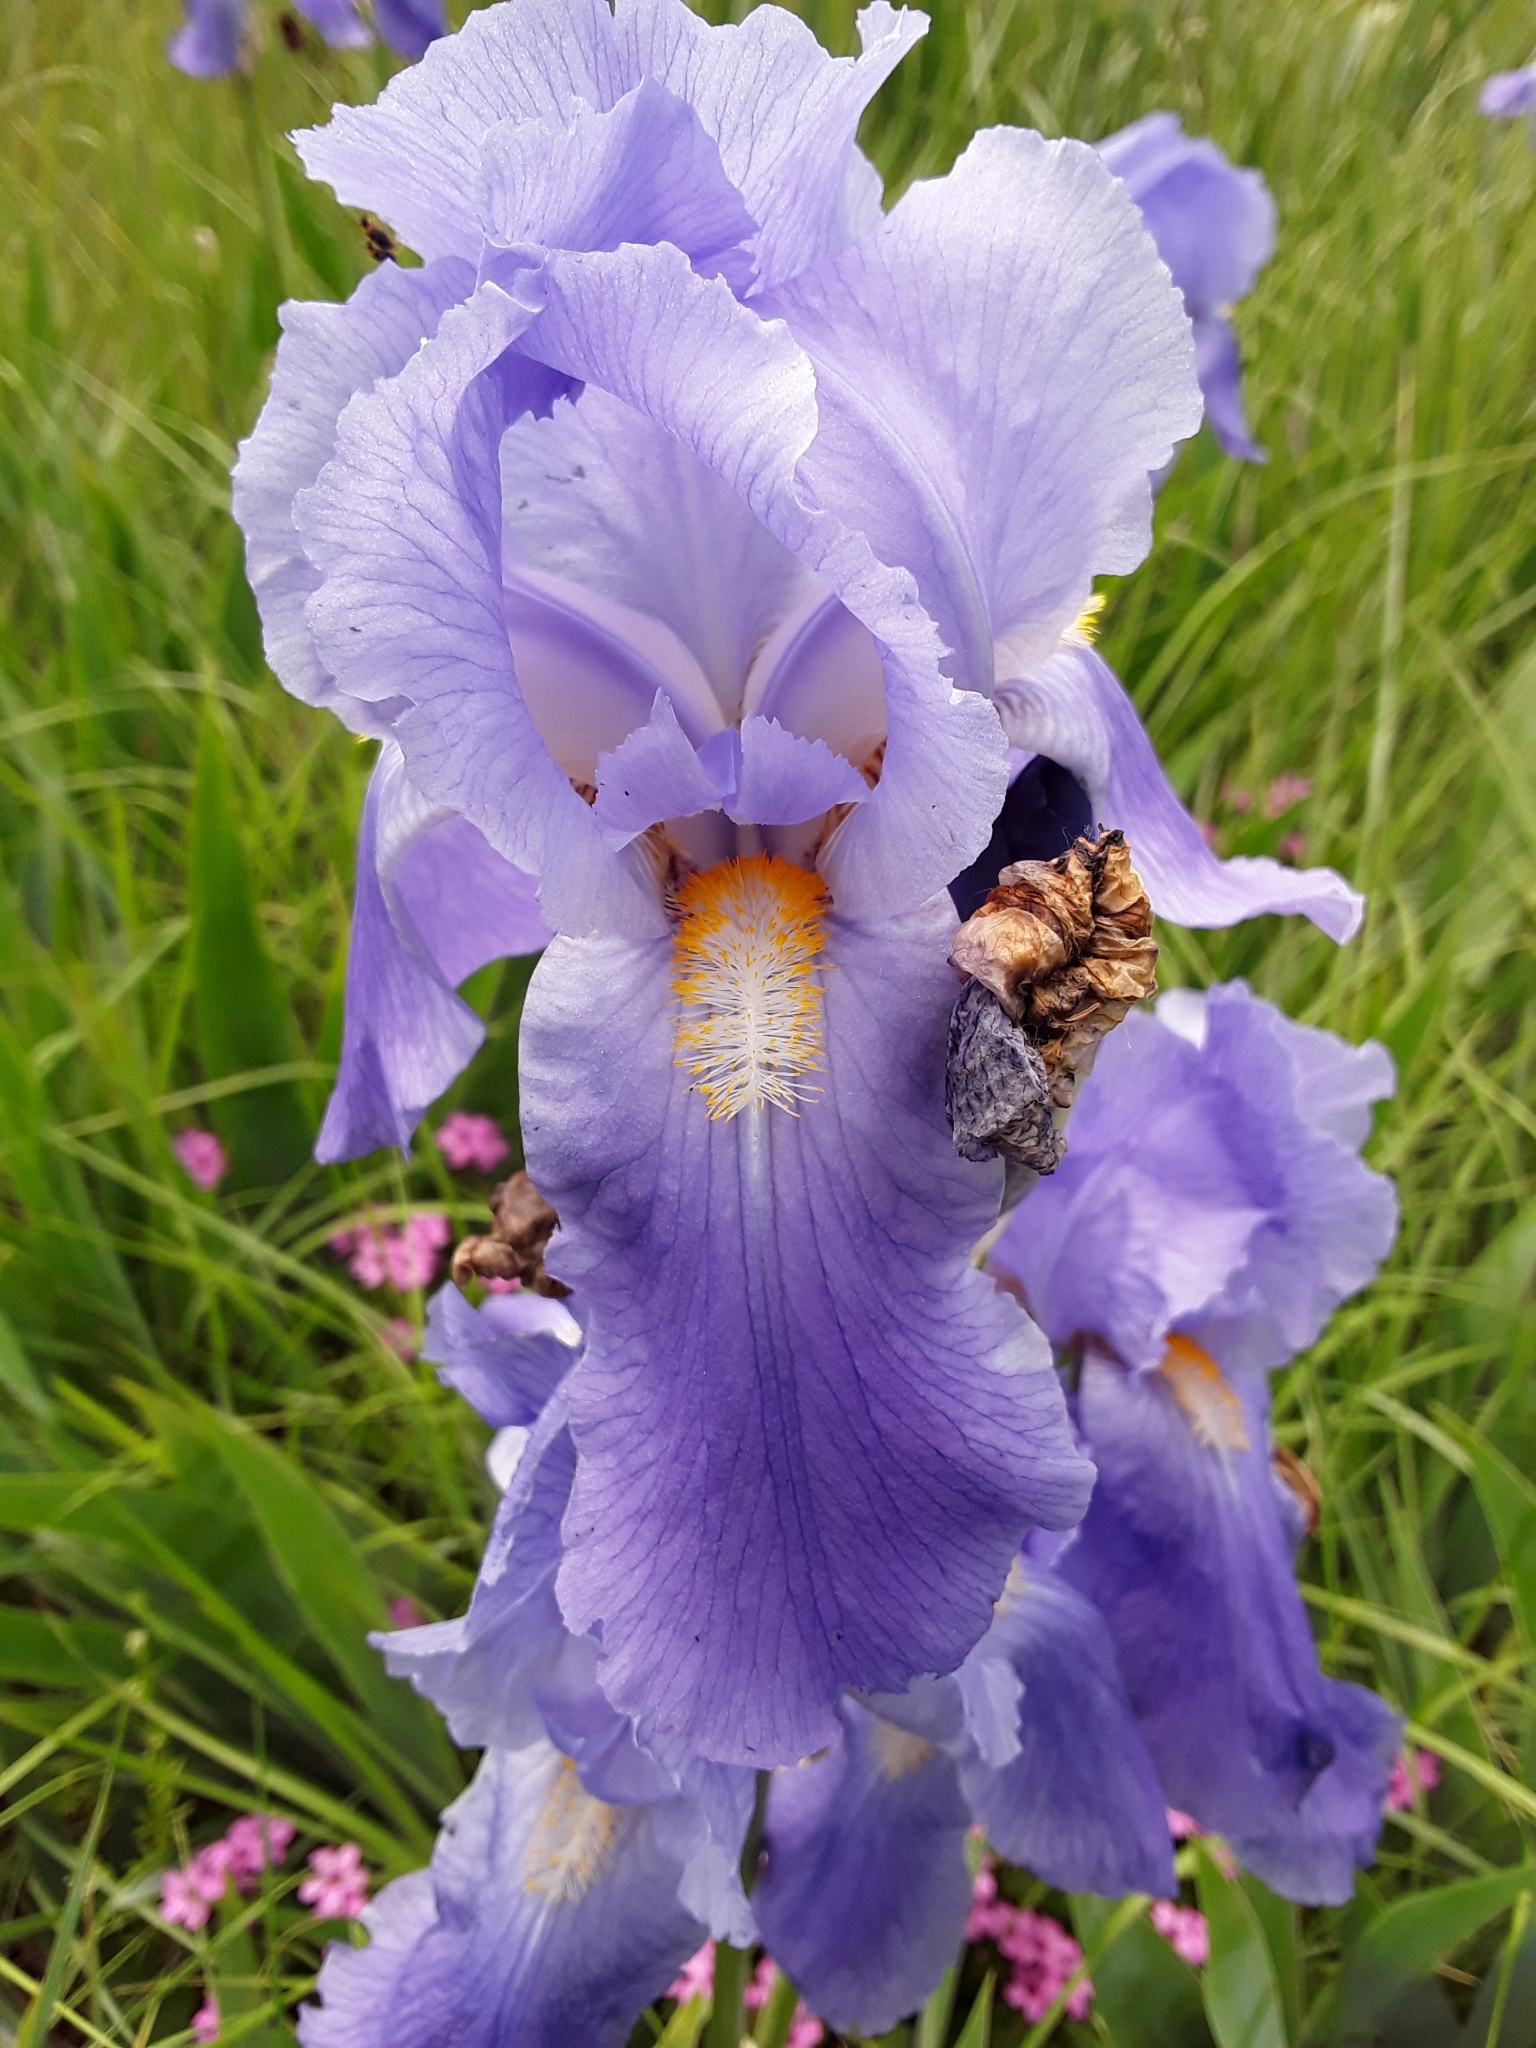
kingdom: Plantae
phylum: Tracheophyta
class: Liliopsida
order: Asparagales
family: Iridaceae
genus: Iris
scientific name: Iris pallida
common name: Sweet iris
